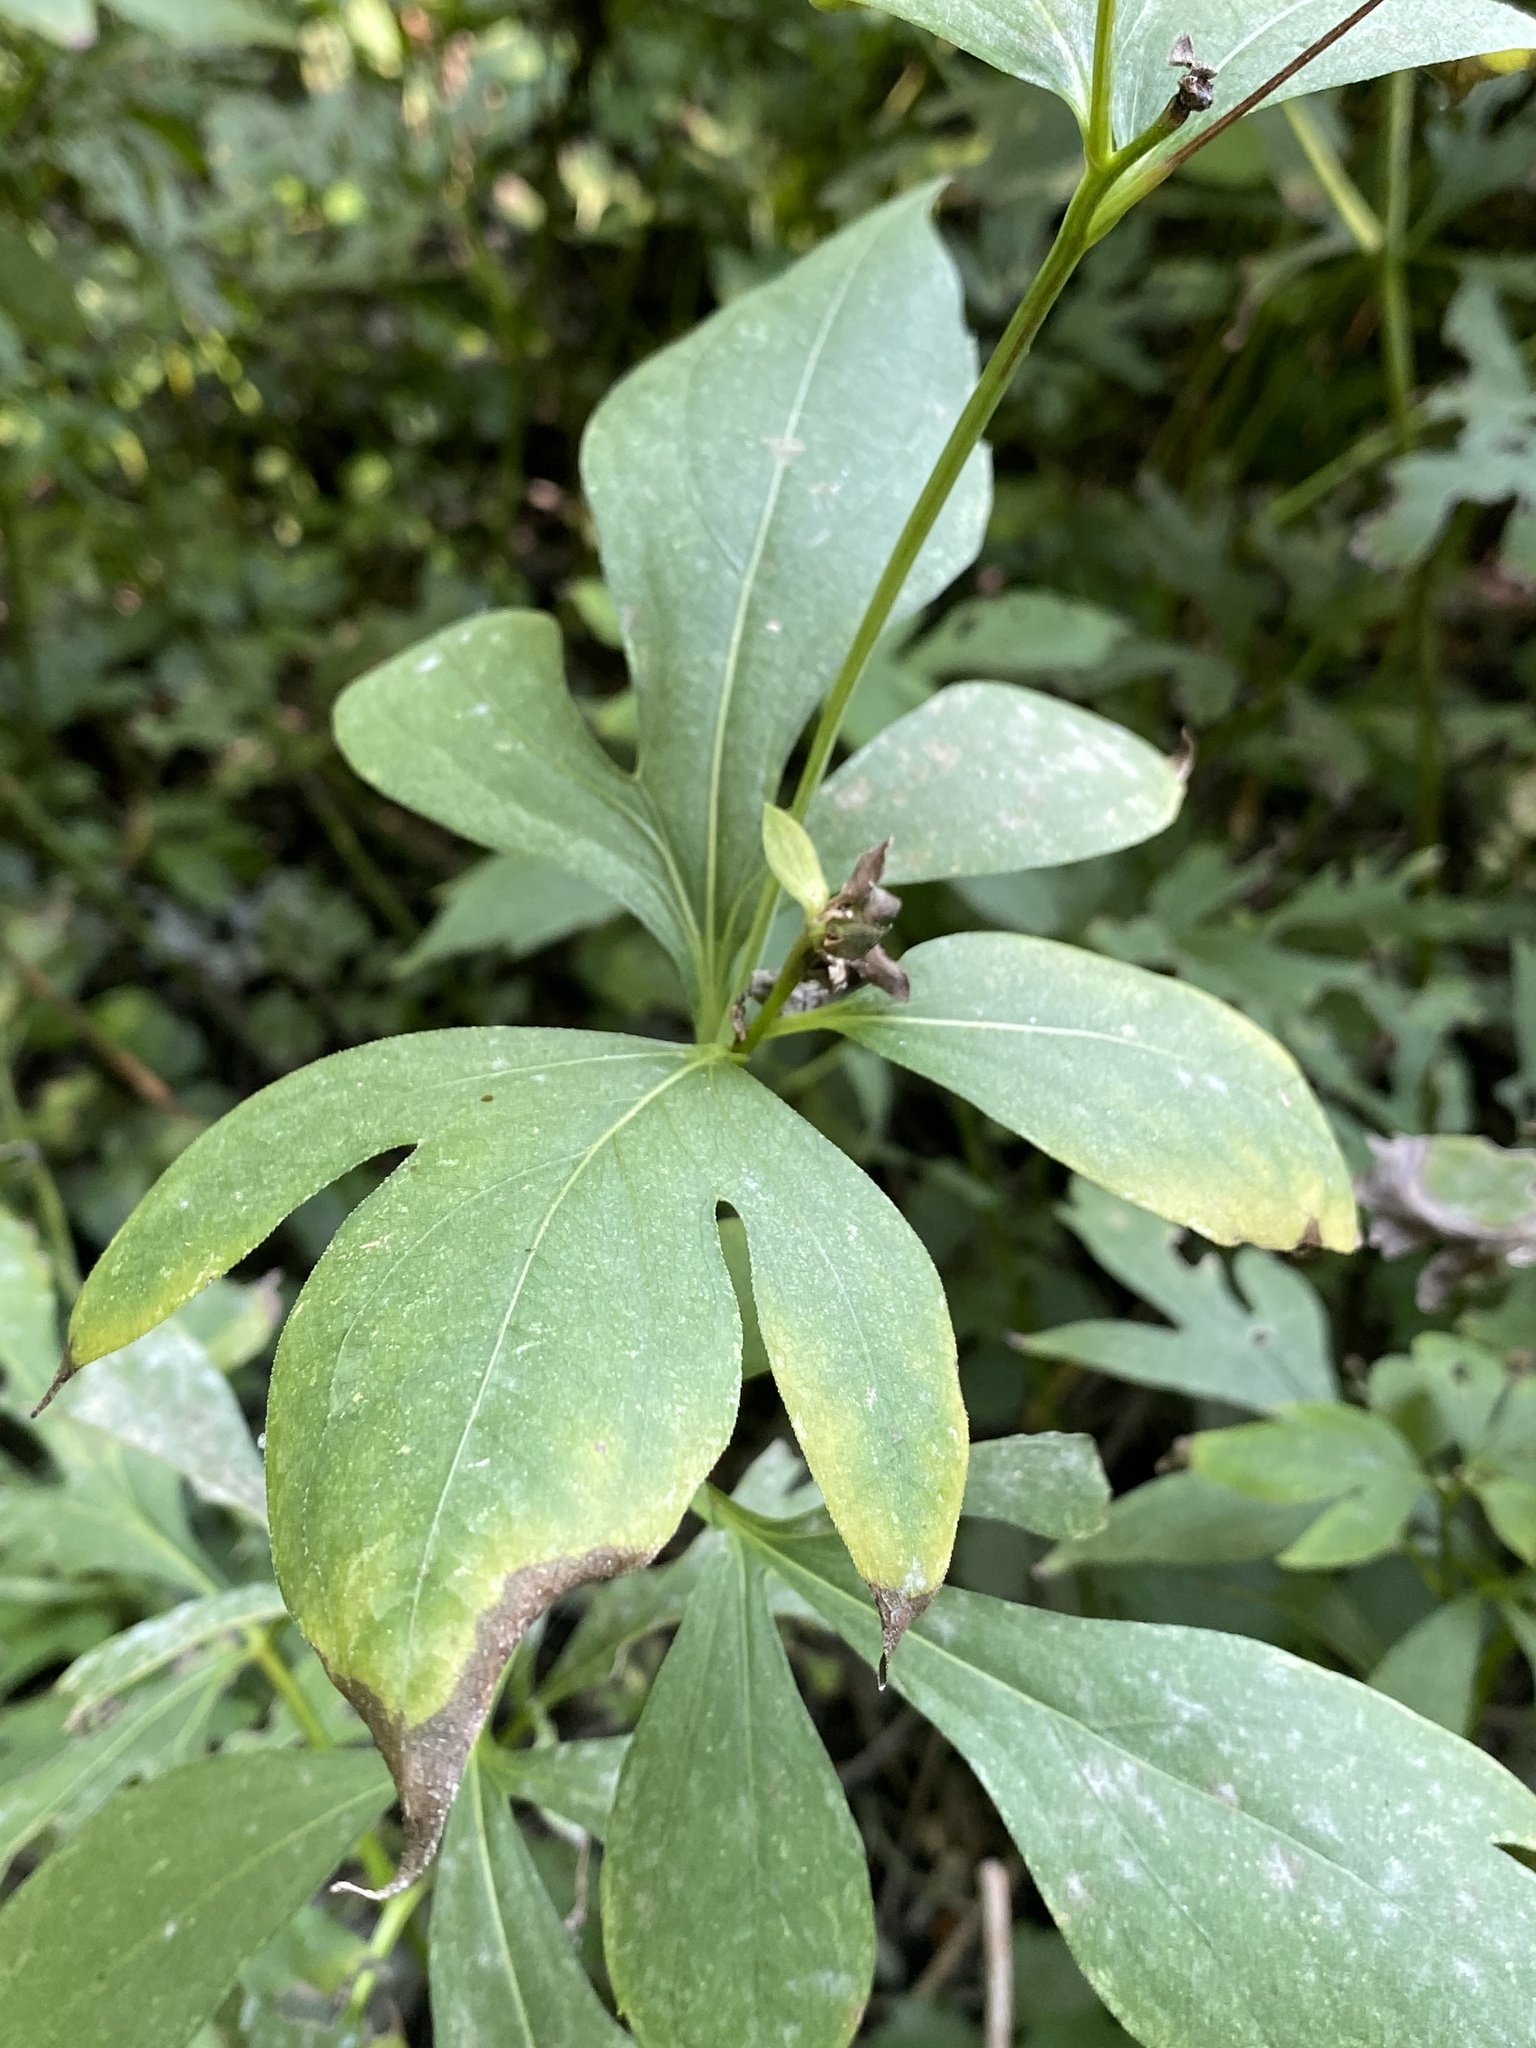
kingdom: Plantae
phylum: Tracheophyta
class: Magnoliopsida
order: Asterales
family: Asteraceae
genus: Rudbeckia
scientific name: Rudbeckia laciniata
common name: Coneflower
